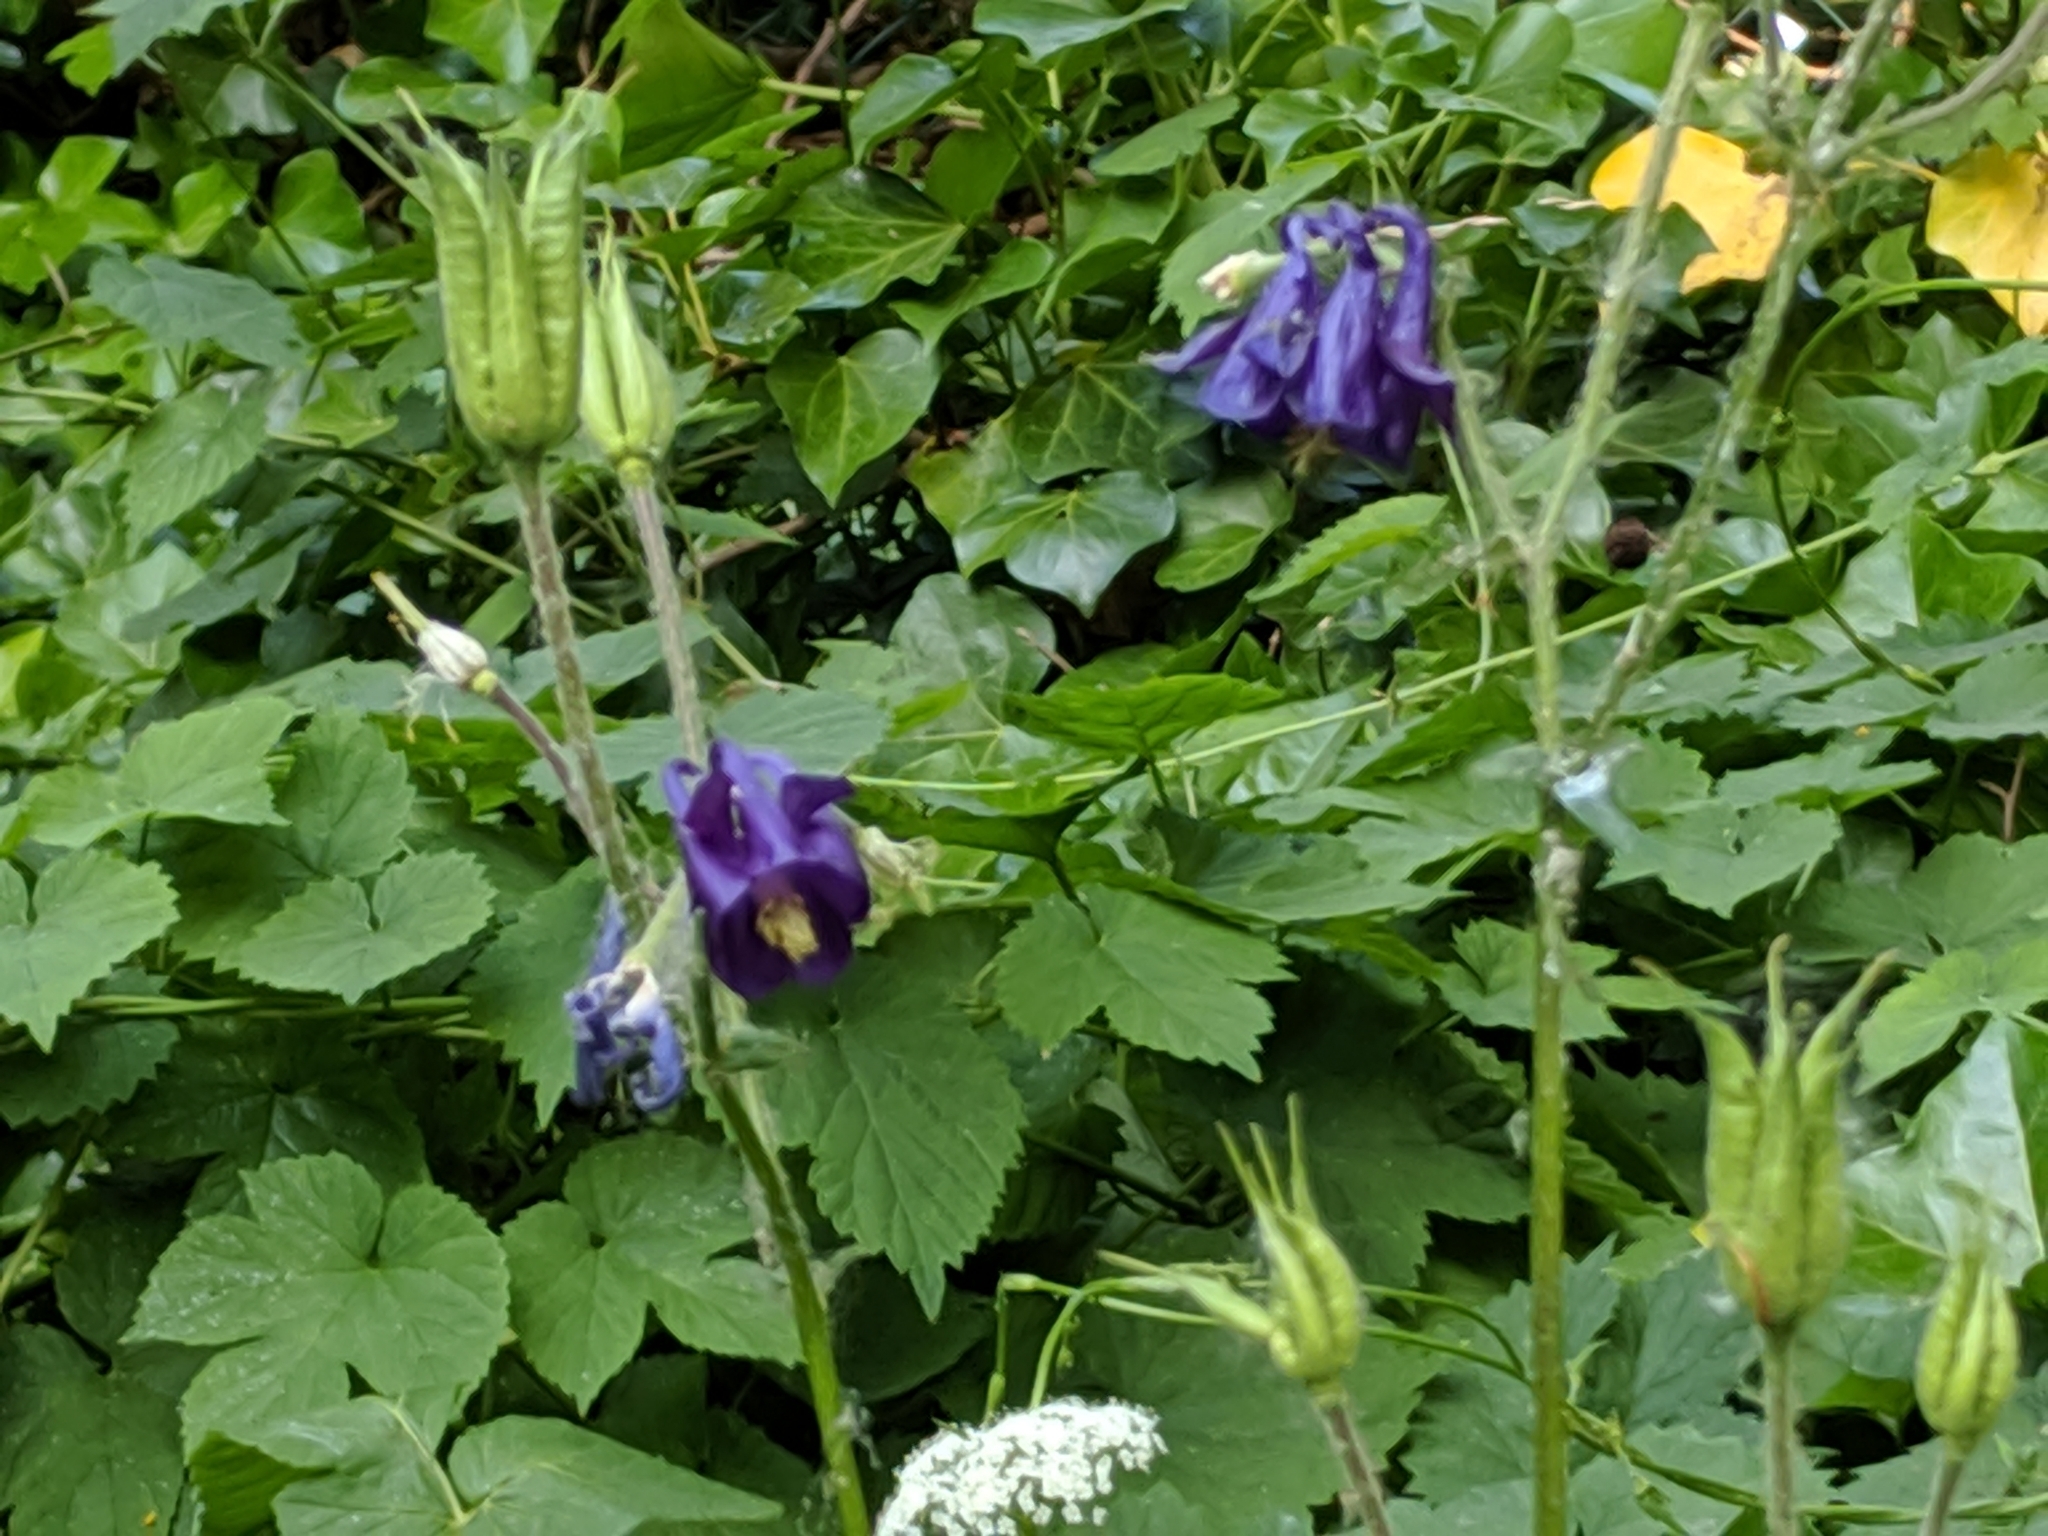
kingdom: Plantae
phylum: Tracheophyta
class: Magnoliopsida
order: Ranunculales
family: Ranunculaceae
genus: Aquilegia
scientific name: Aquilegia vulgaris
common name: Columbine
